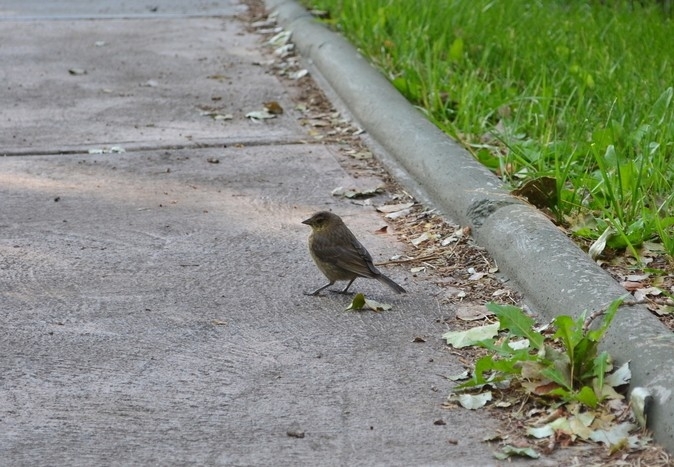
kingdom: Animalia
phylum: Chordata
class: Aves
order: Passeriformes
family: Icteridae
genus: Molothrus
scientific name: Molothrus bonariensis
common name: Shiny cowbird
